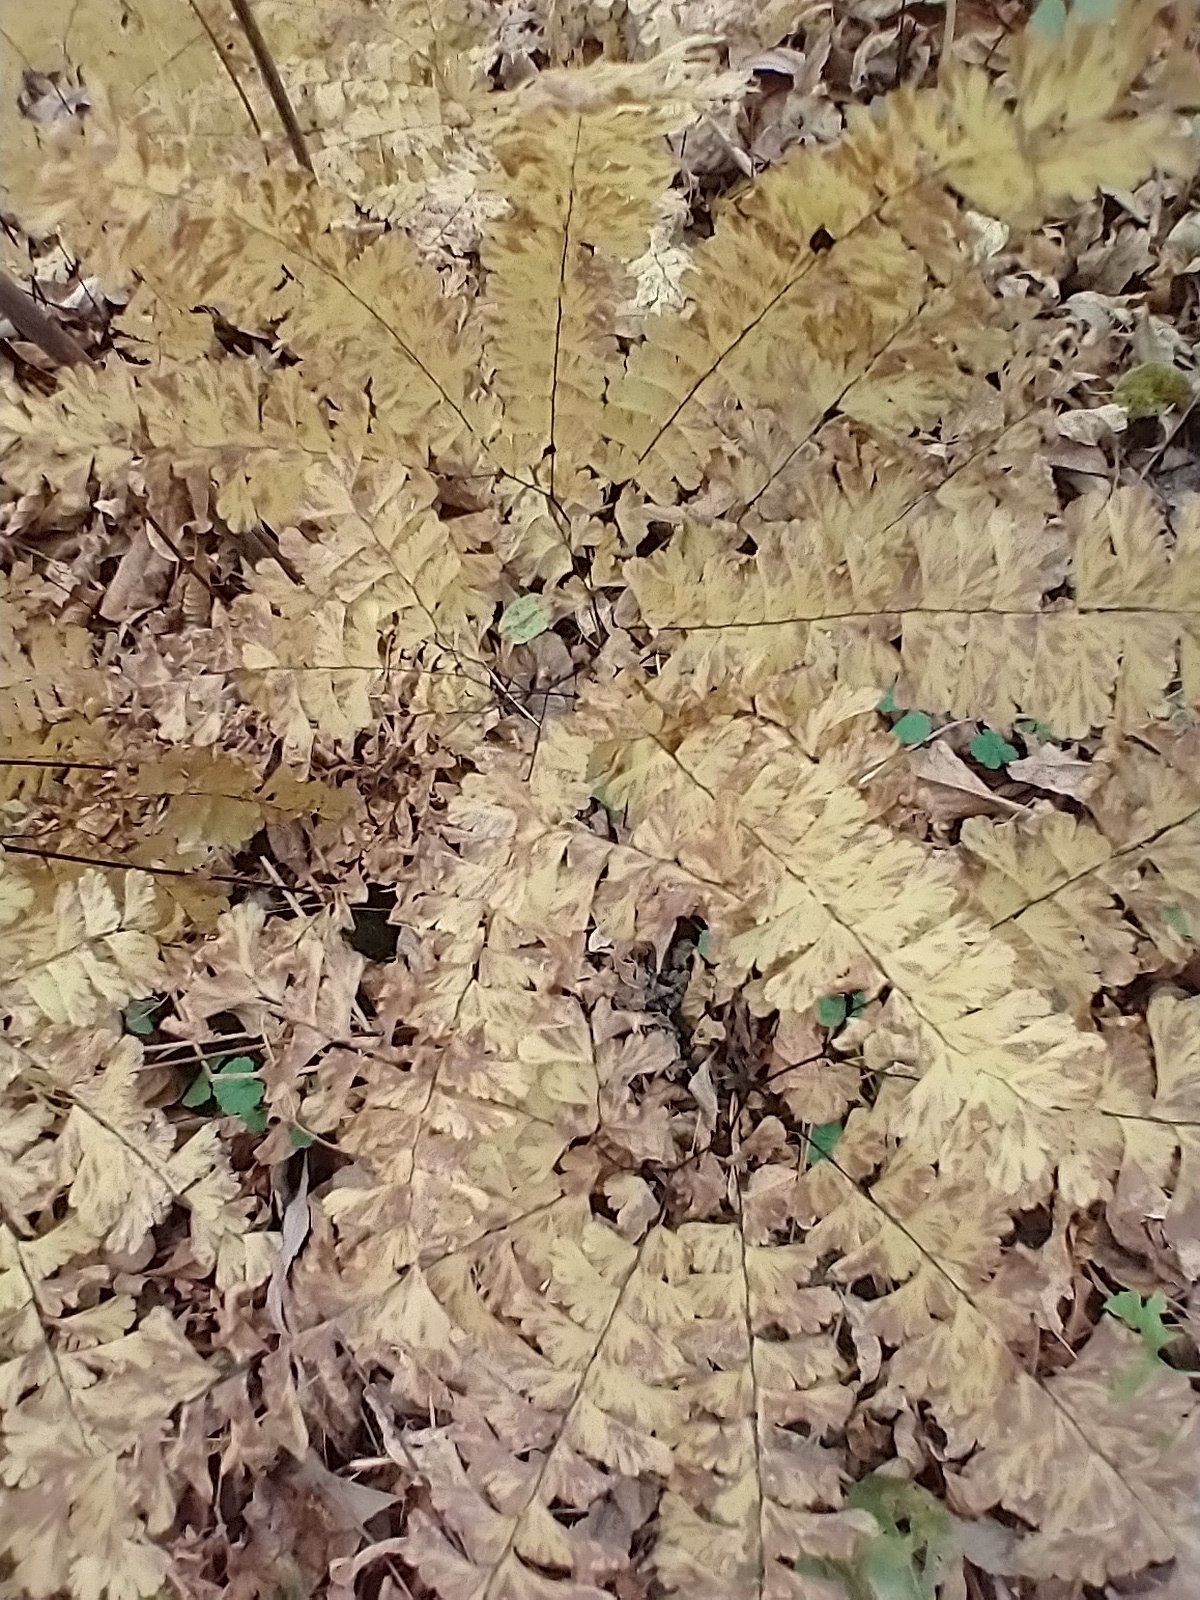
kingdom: Plantae
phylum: Tracheophyta
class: Polypodiopsida
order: Polypodiales
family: Pteridaceae
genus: Adiantum
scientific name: Adiantum pedatum
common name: Five-finger fern
